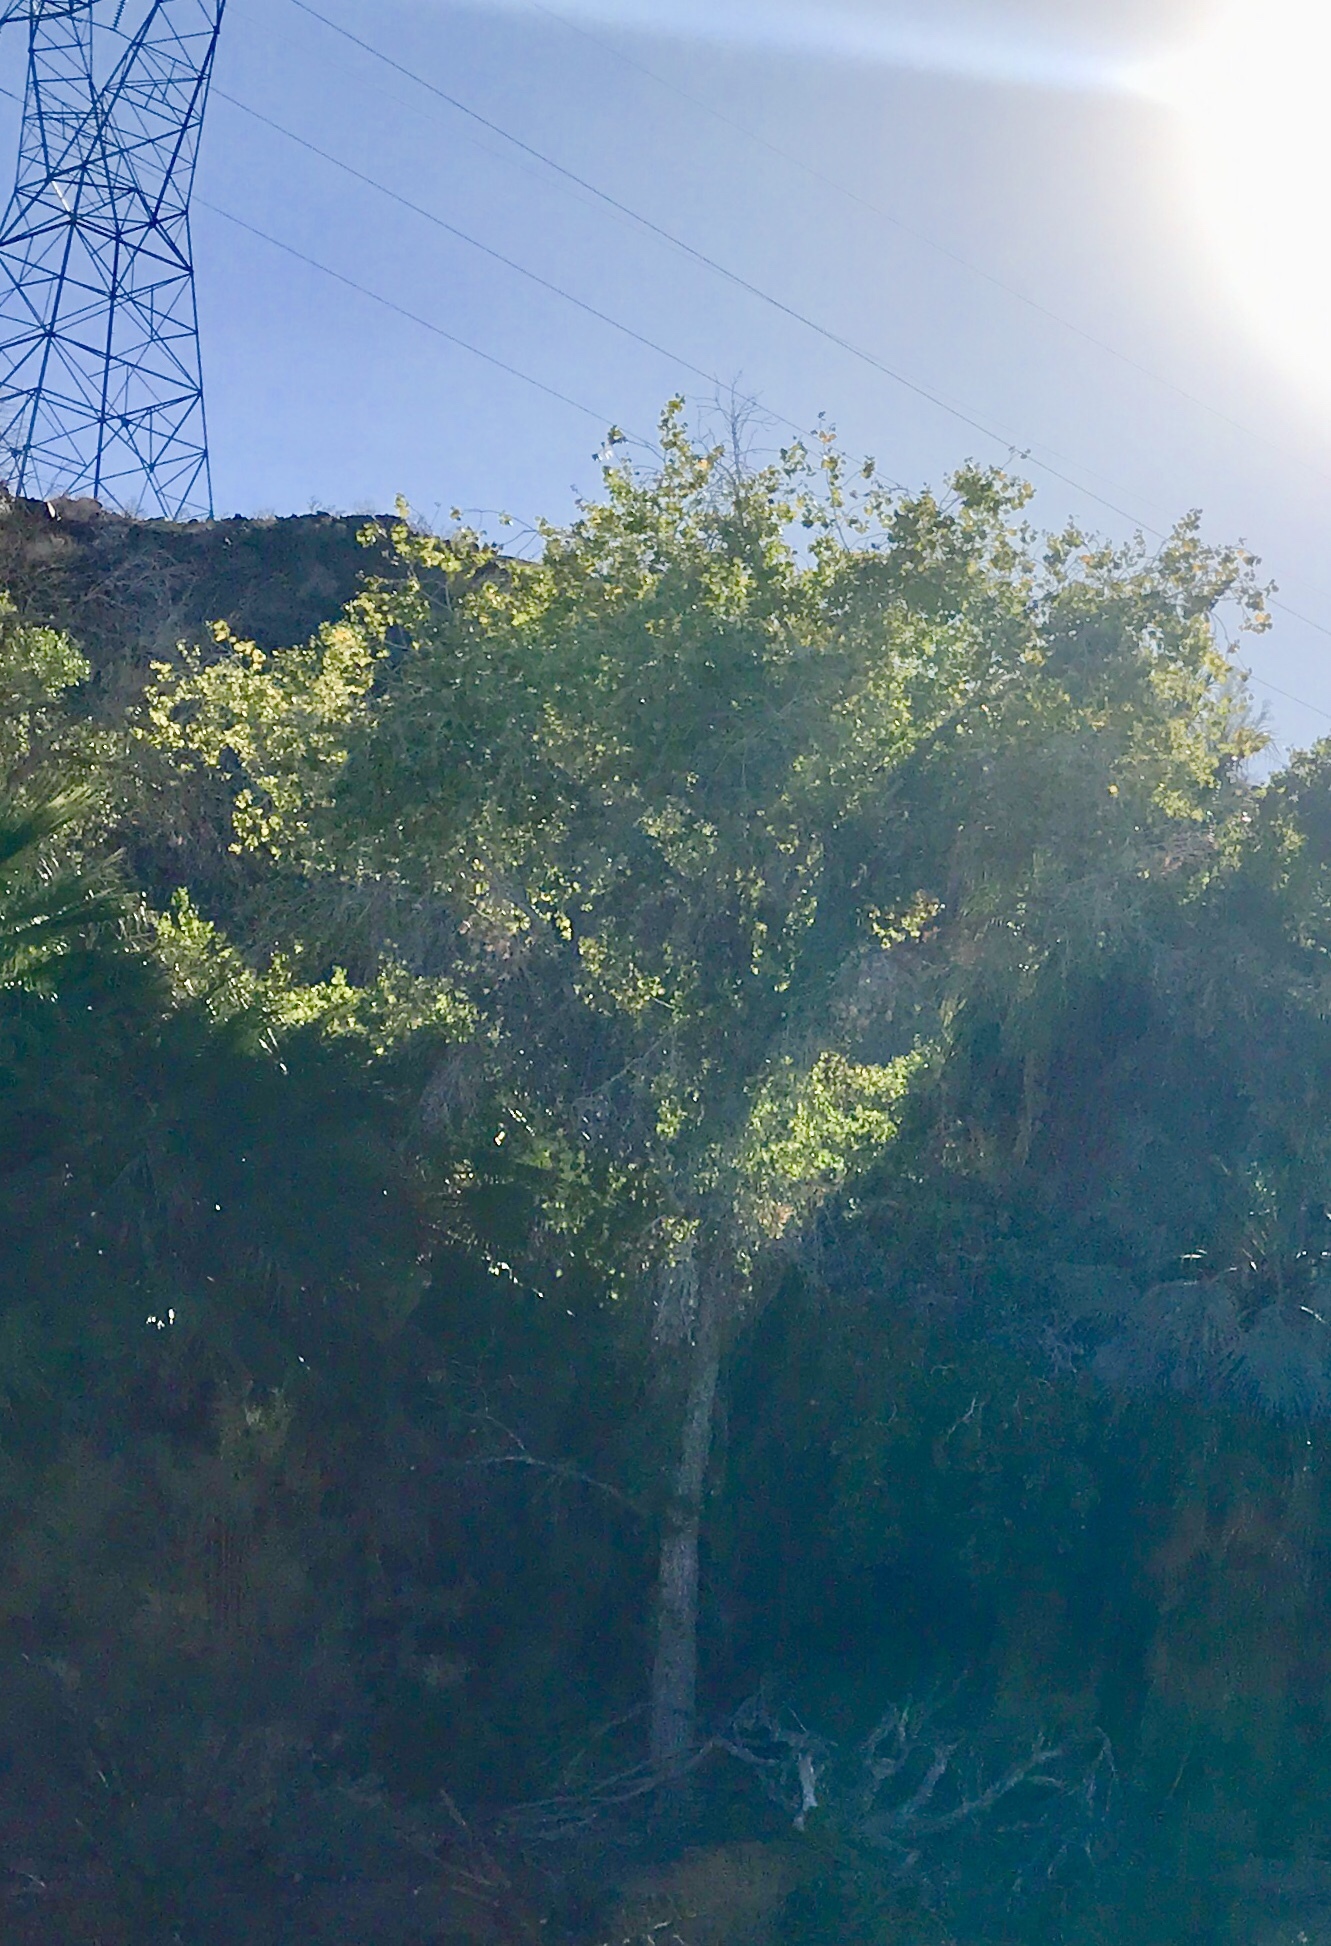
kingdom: Plantae
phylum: Tracheophyta
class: Magnoliopsida
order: Malpighiales
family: Salicaceae
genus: Populus
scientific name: Populus fremontii
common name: Fremont's cottonwood
